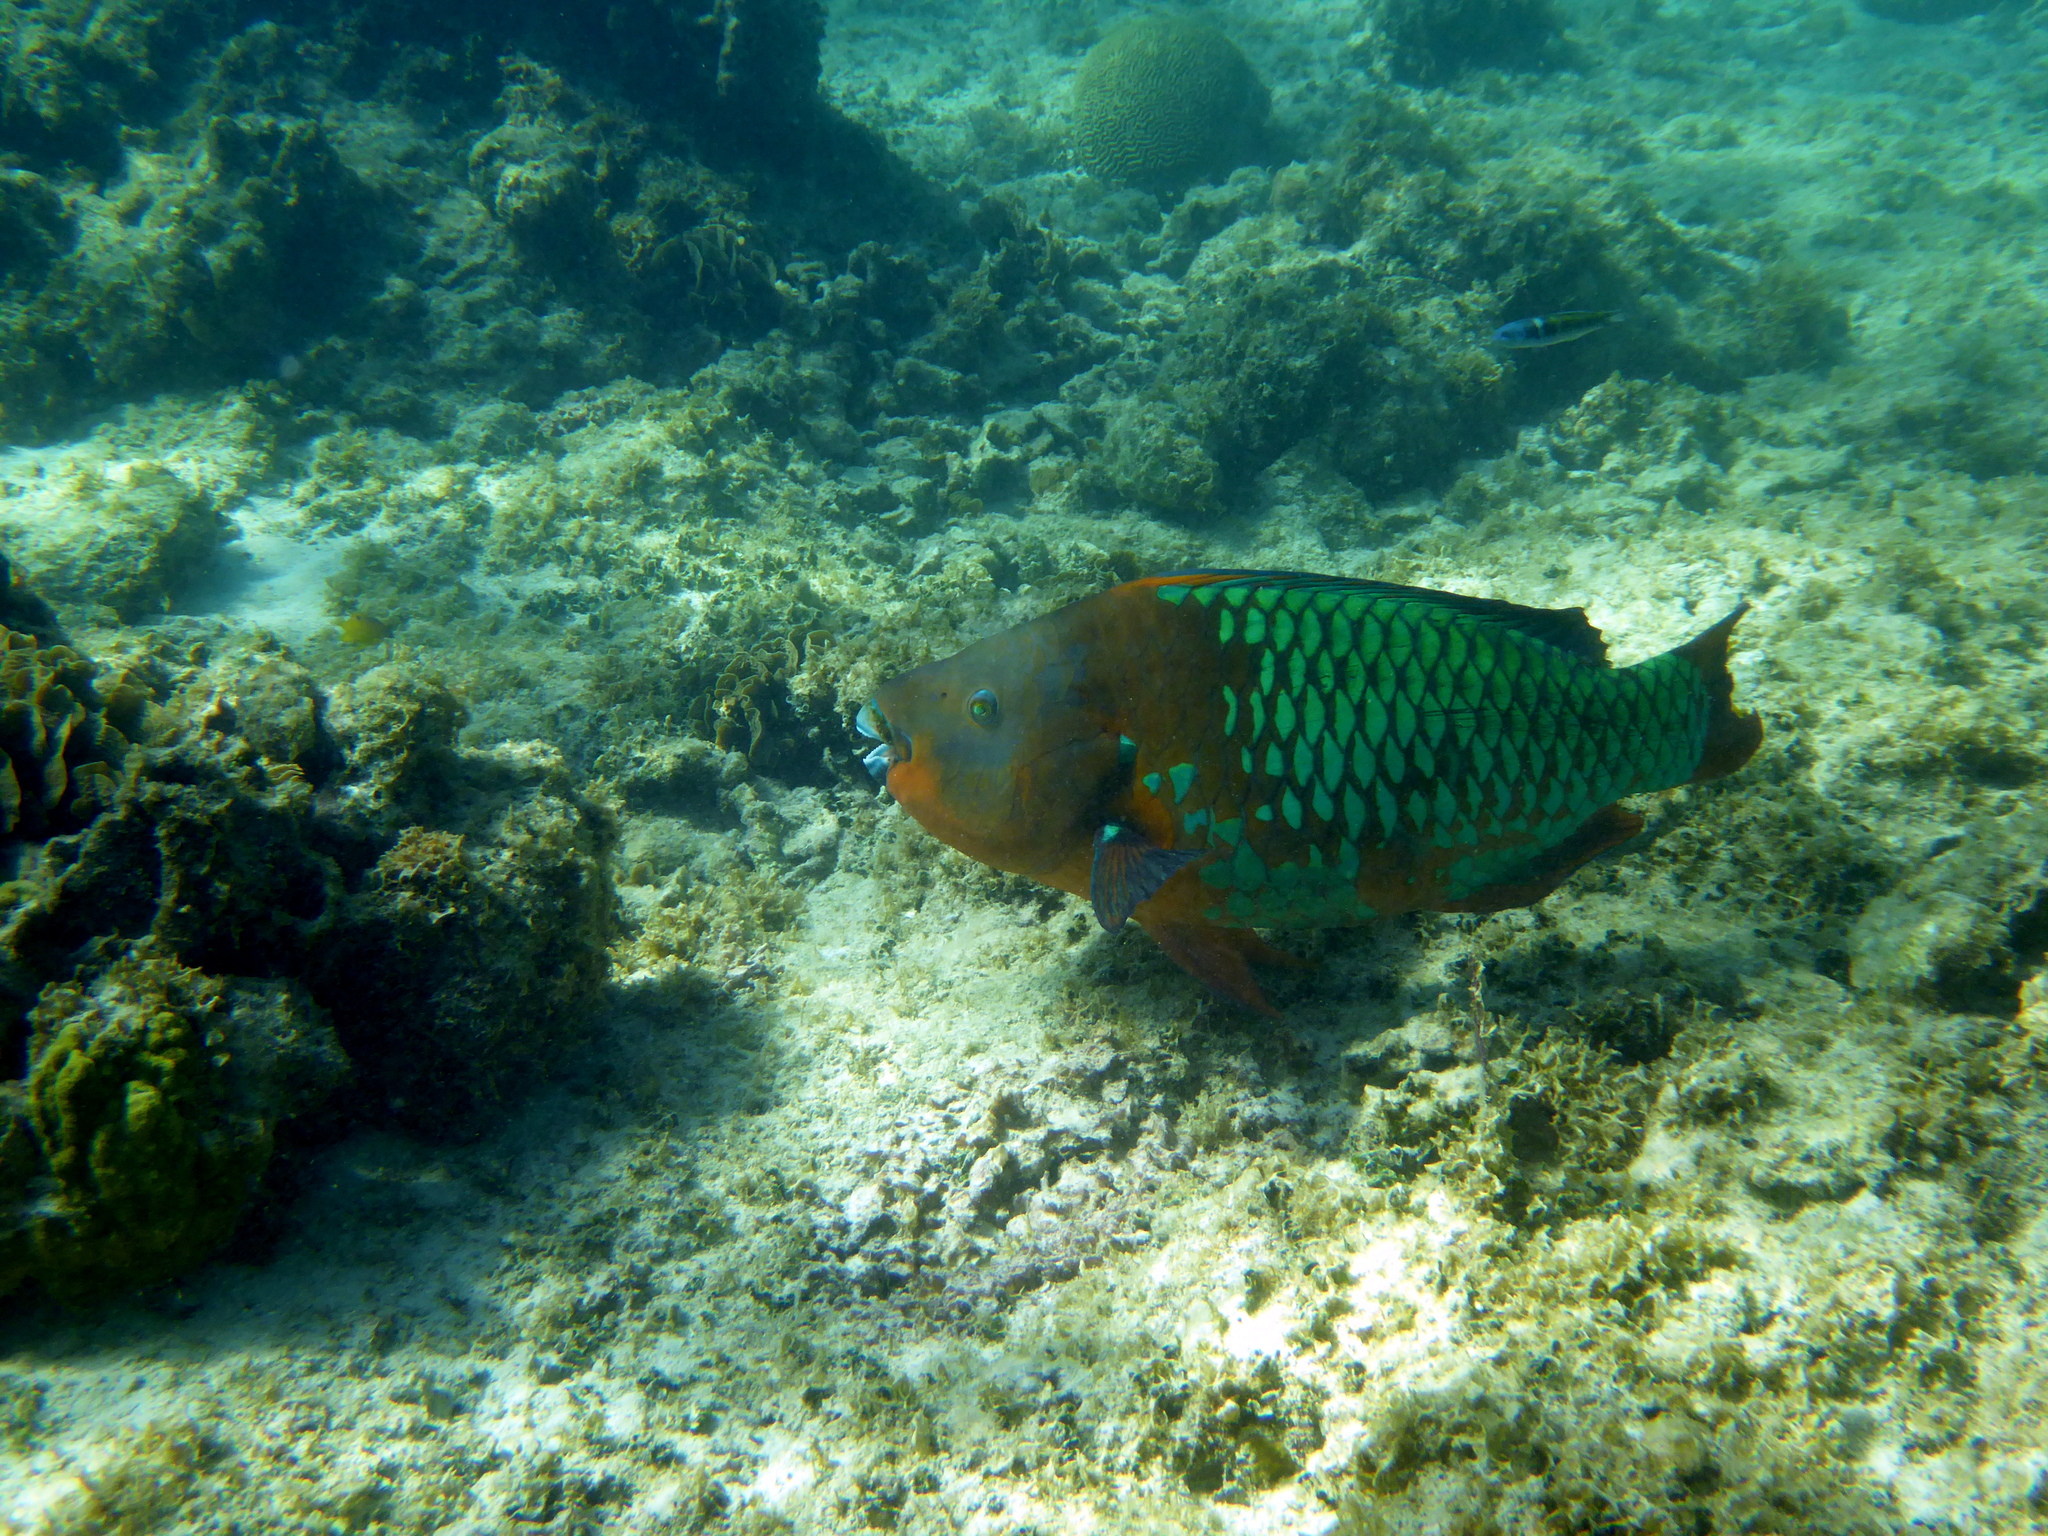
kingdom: Animalia
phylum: Chordata
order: Perciformes
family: Scaridae
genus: Scarus
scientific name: Scarus guacamaia
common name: Rainbow parrotfish
